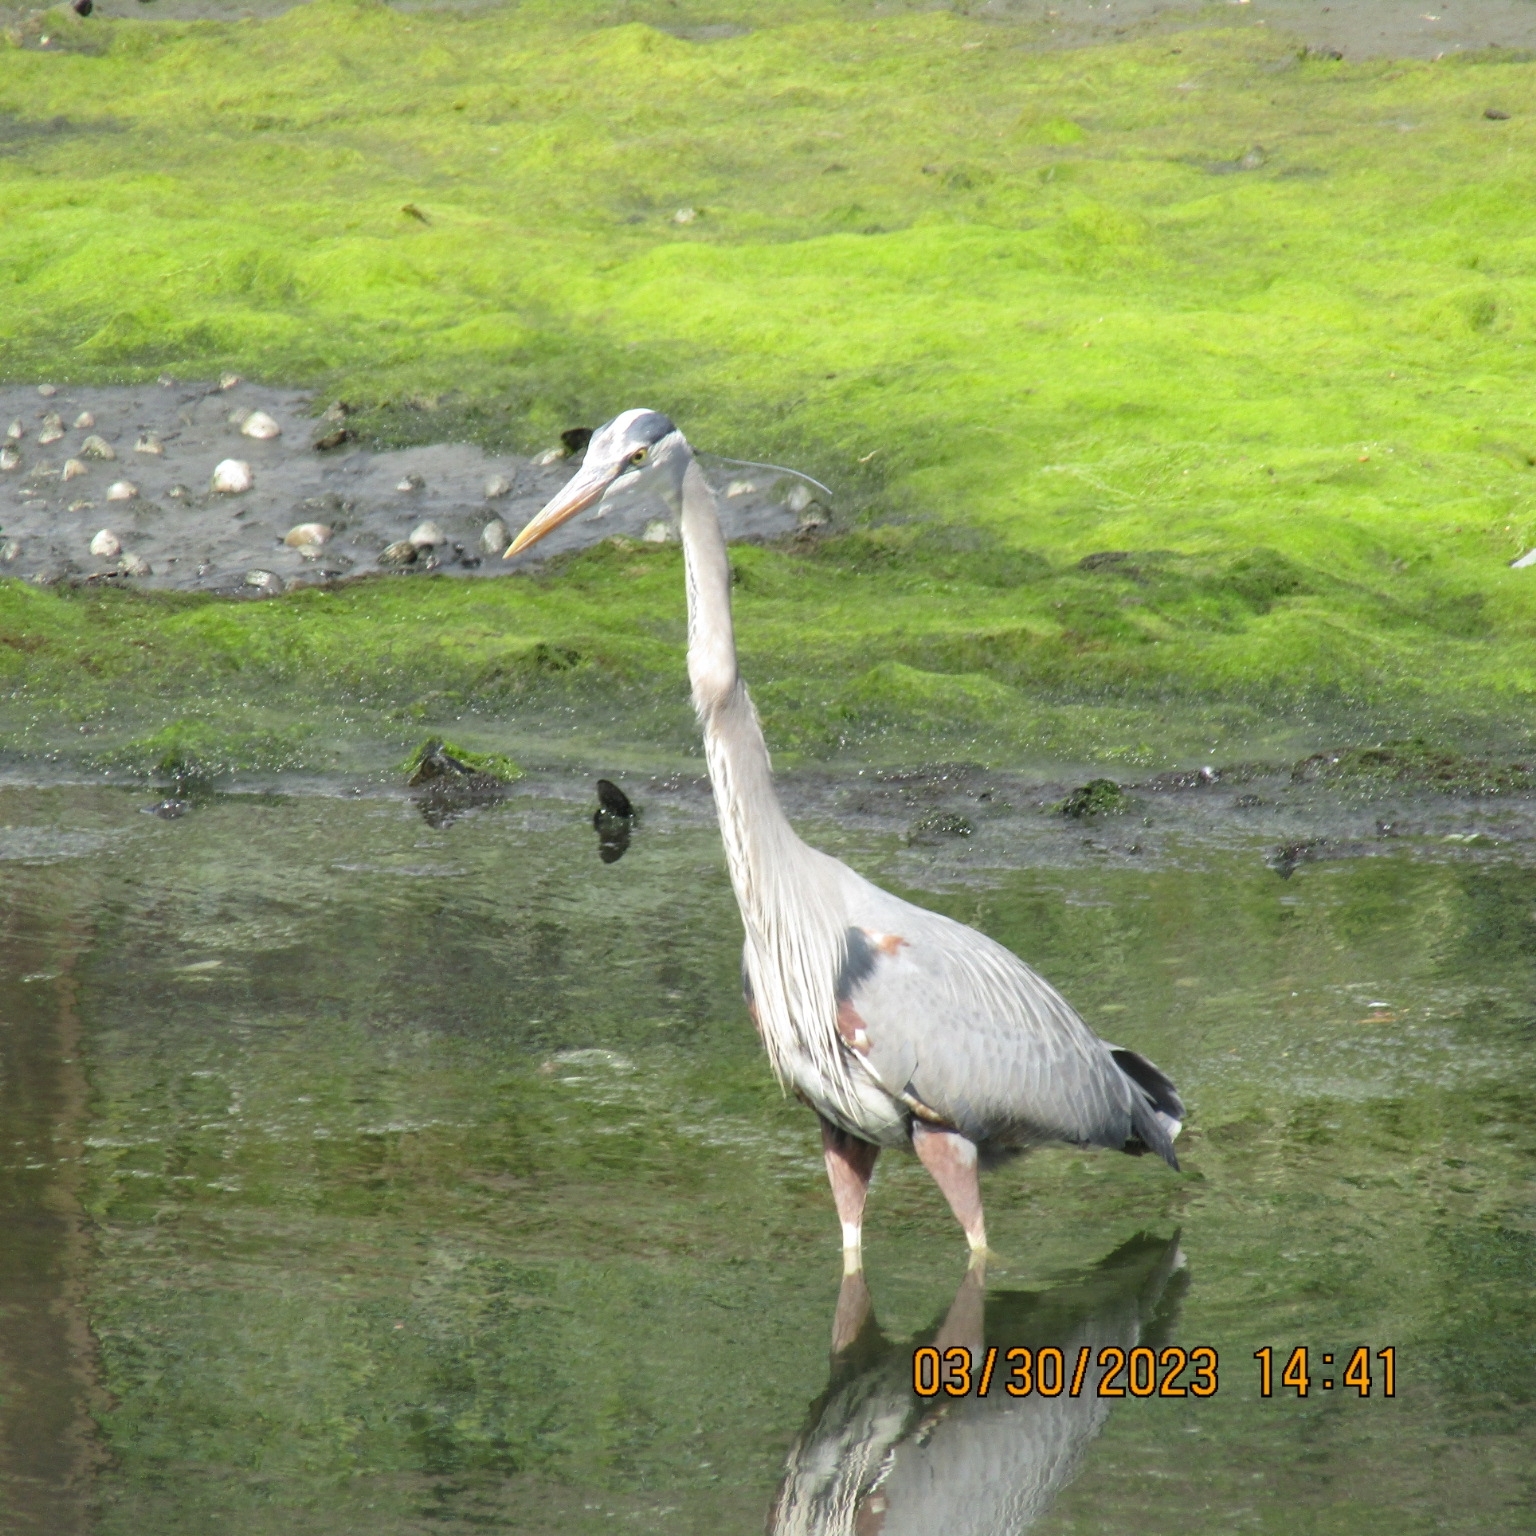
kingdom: Animalia
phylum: Chordata
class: Aves
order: Pelecaniformes
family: Ardeidae
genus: Ardea
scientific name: Ardea herodias
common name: Great blue heron
